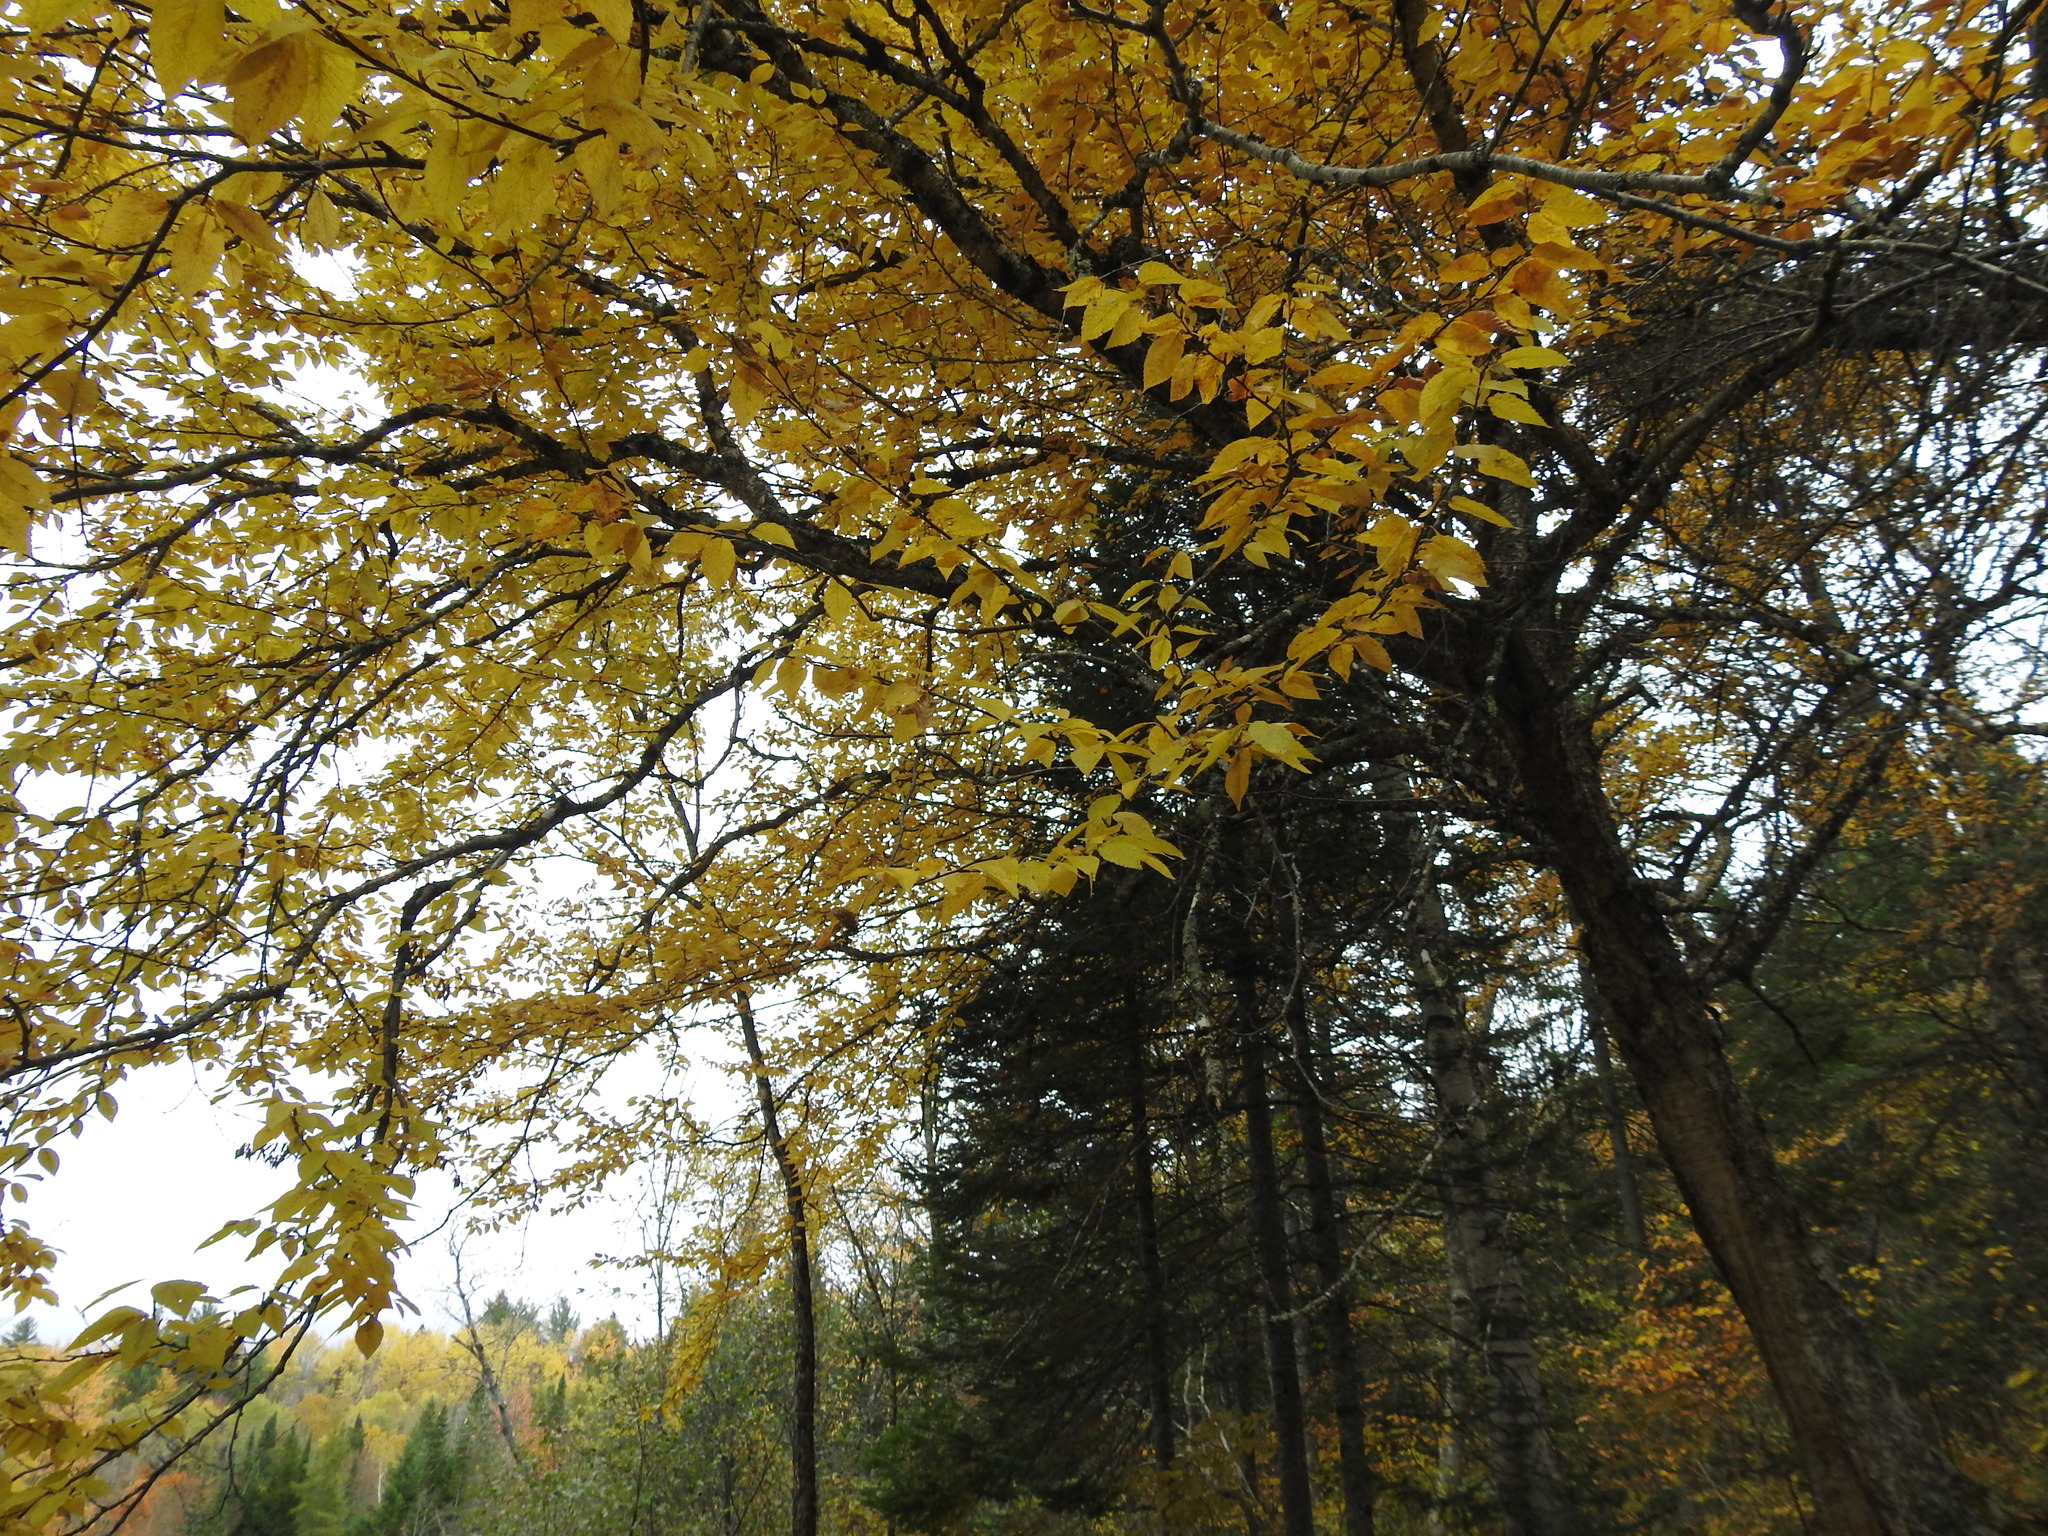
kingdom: Plantae
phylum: Tracheophyta
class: Magnoliopsida
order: Fagales
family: Betulaceae
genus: Betula
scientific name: Betula alleghaniensis
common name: Yellow birch
